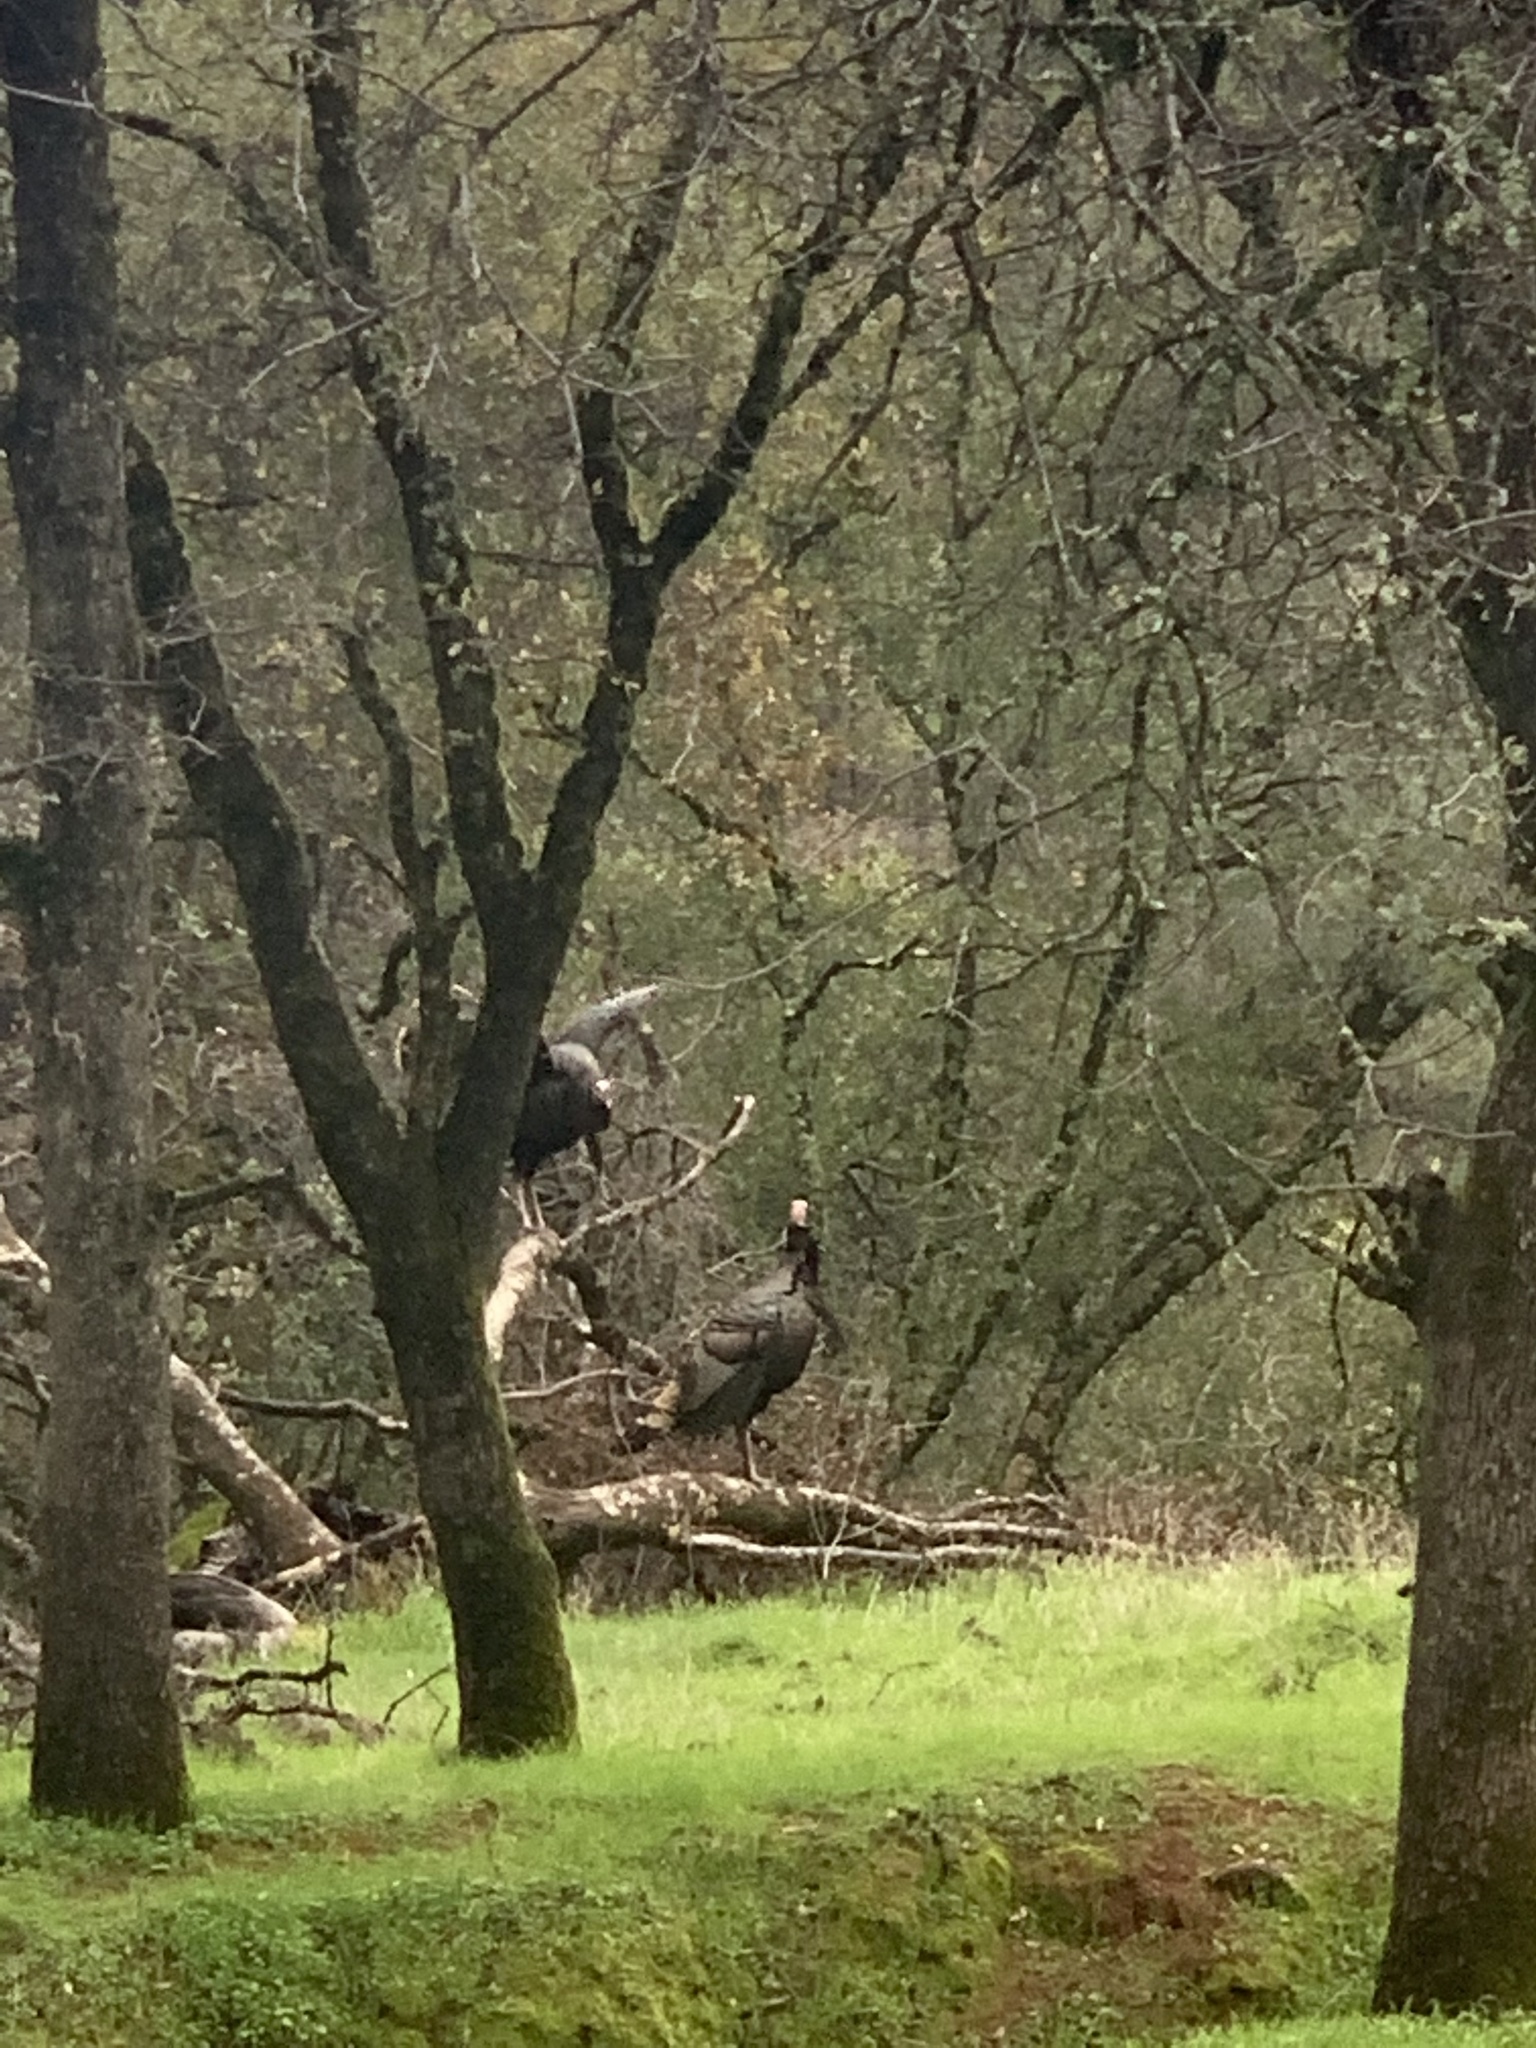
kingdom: Animalia
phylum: Chordata
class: Aves
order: Galliformes
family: Phasianidae
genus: Meleagris
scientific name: Meleagris gallopavo
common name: Wild turkey
